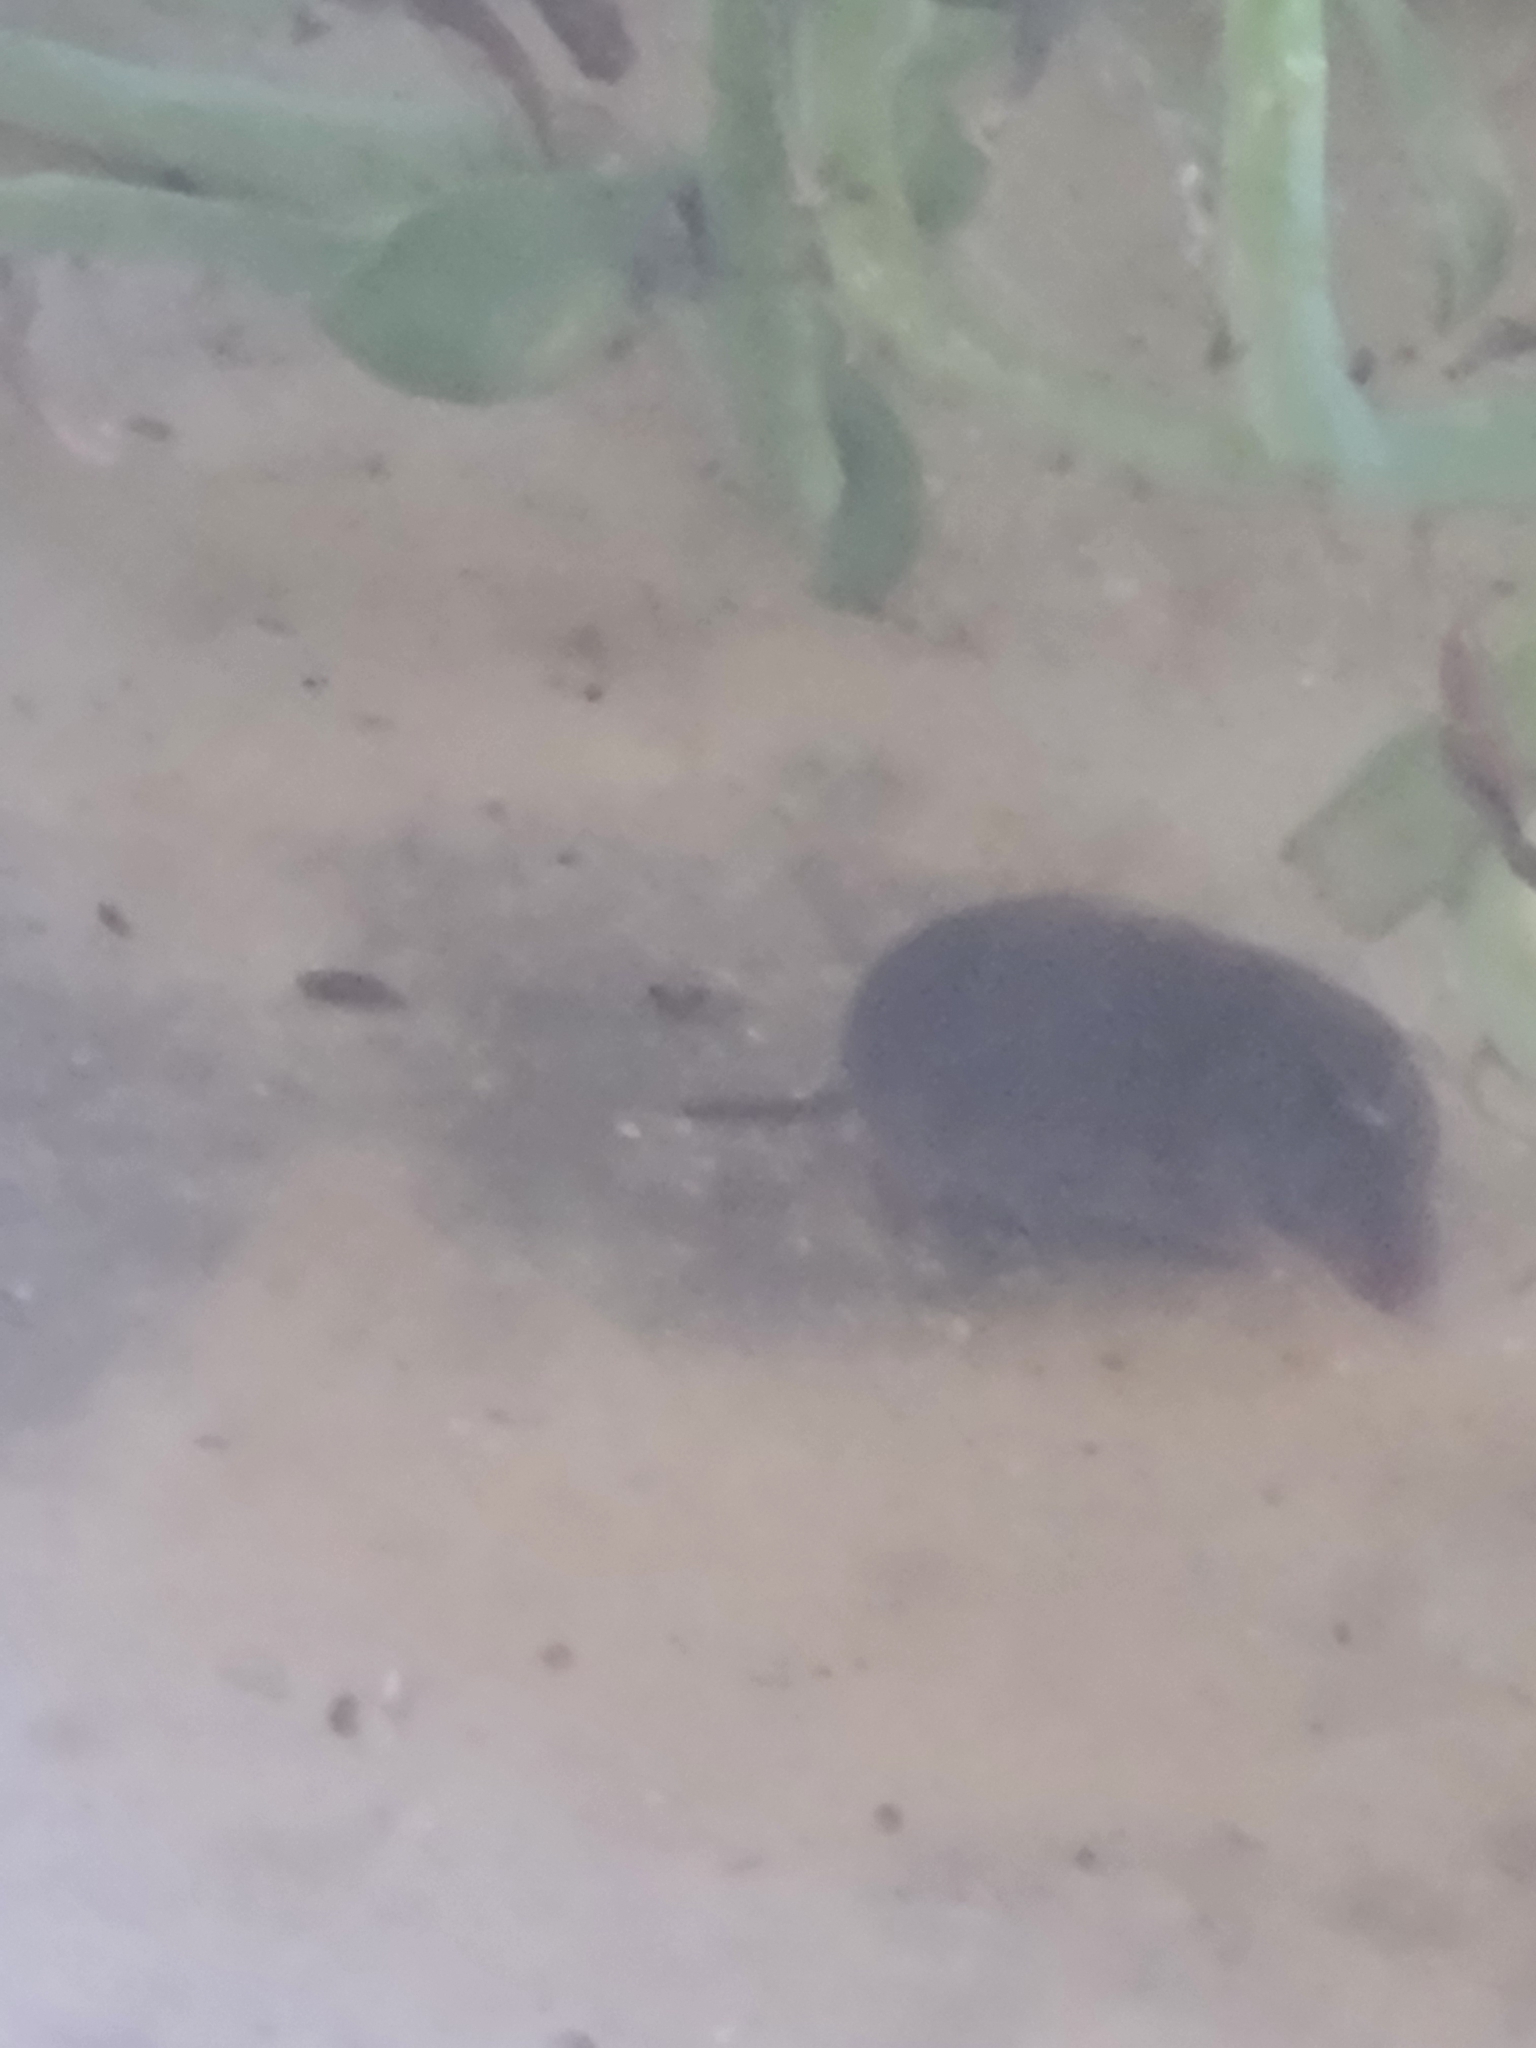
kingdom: Animalia
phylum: Chordata
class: Mammalia
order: Rodentia
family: Cricetidae
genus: Microtus
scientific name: Microtus pinetorum
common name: Woodland vole
